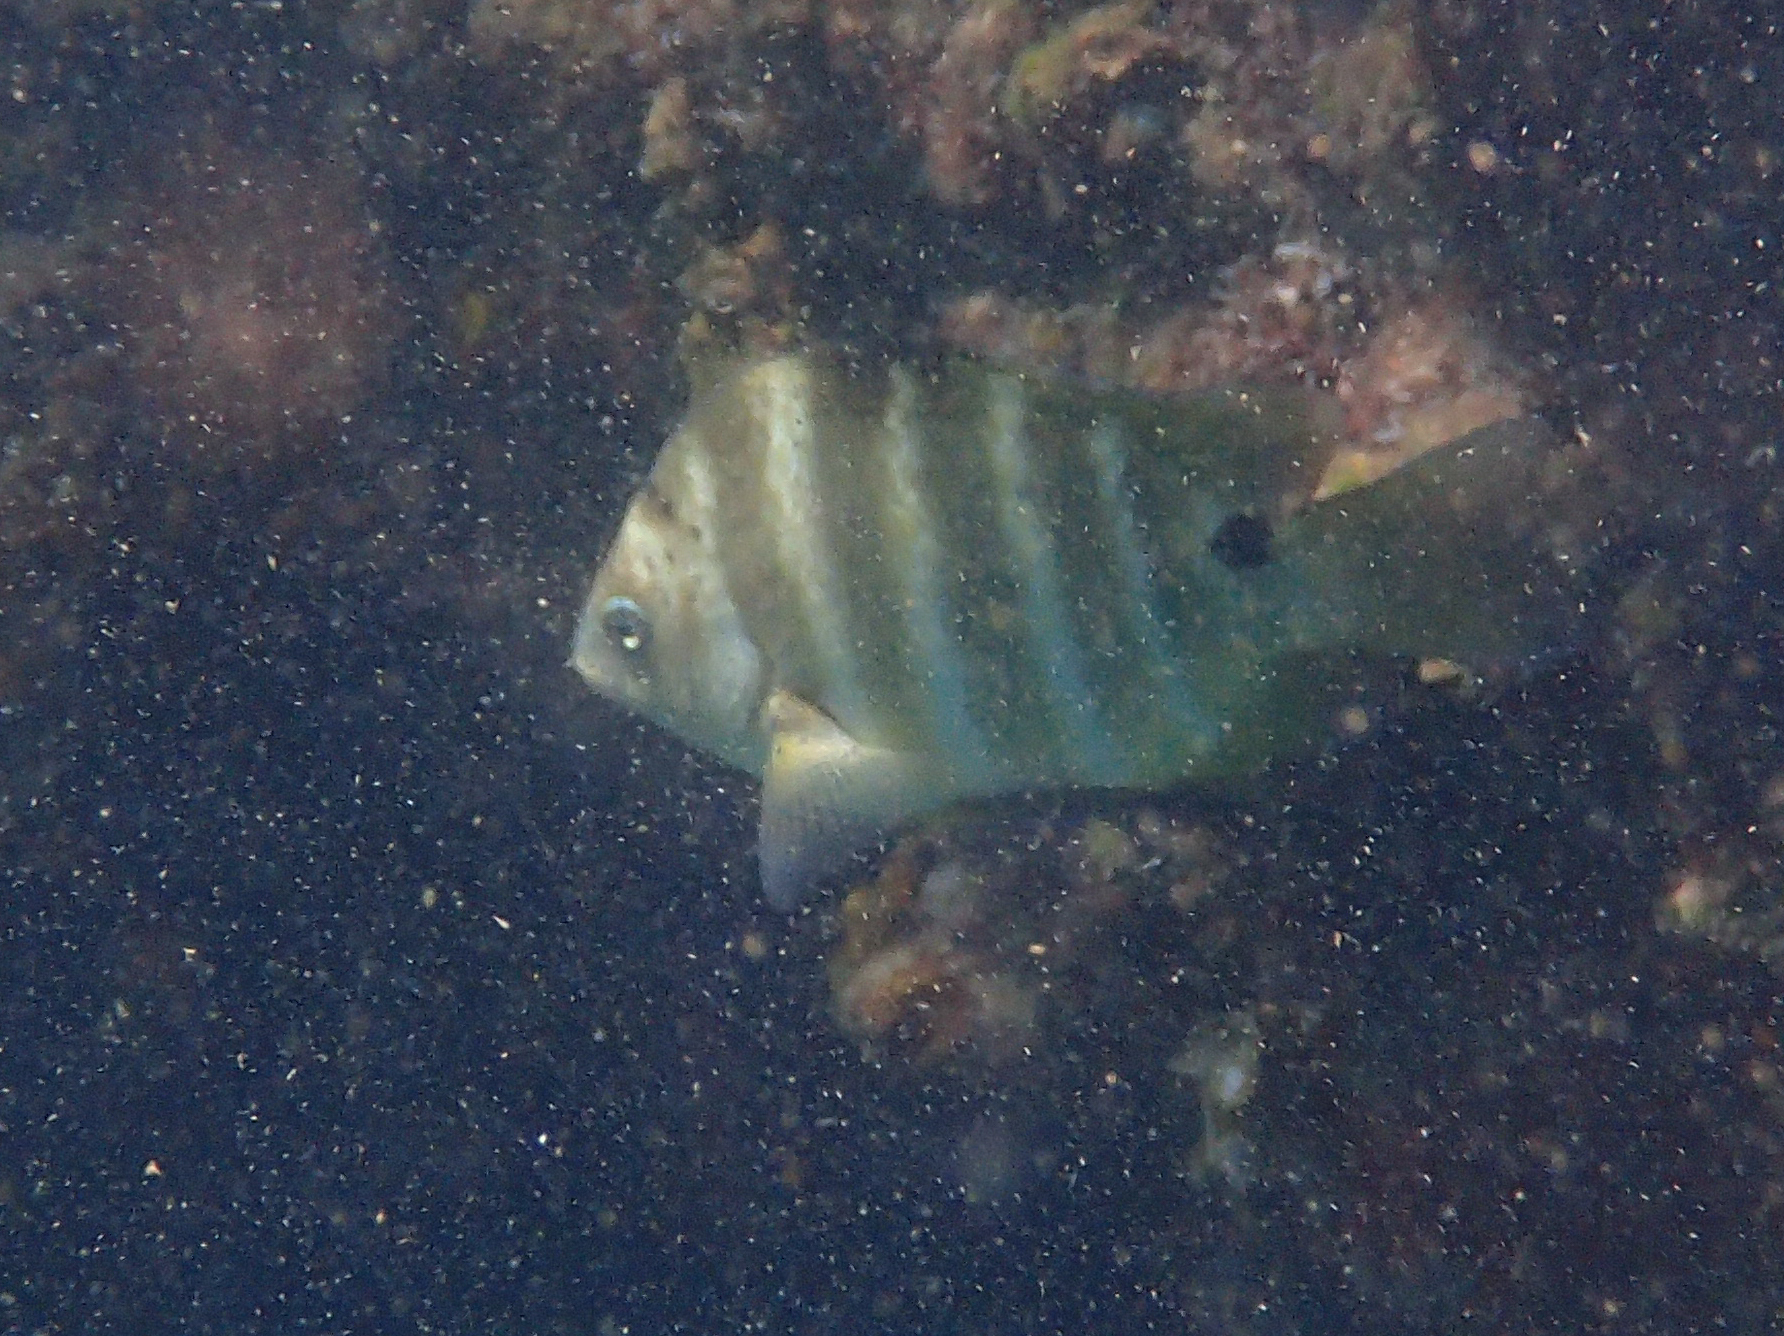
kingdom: Animalia
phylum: Chordata
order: Perciformes
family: Pomacentridae
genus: Abudefduf
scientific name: Abudefduf sordidus
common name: Blackspot sergeant
